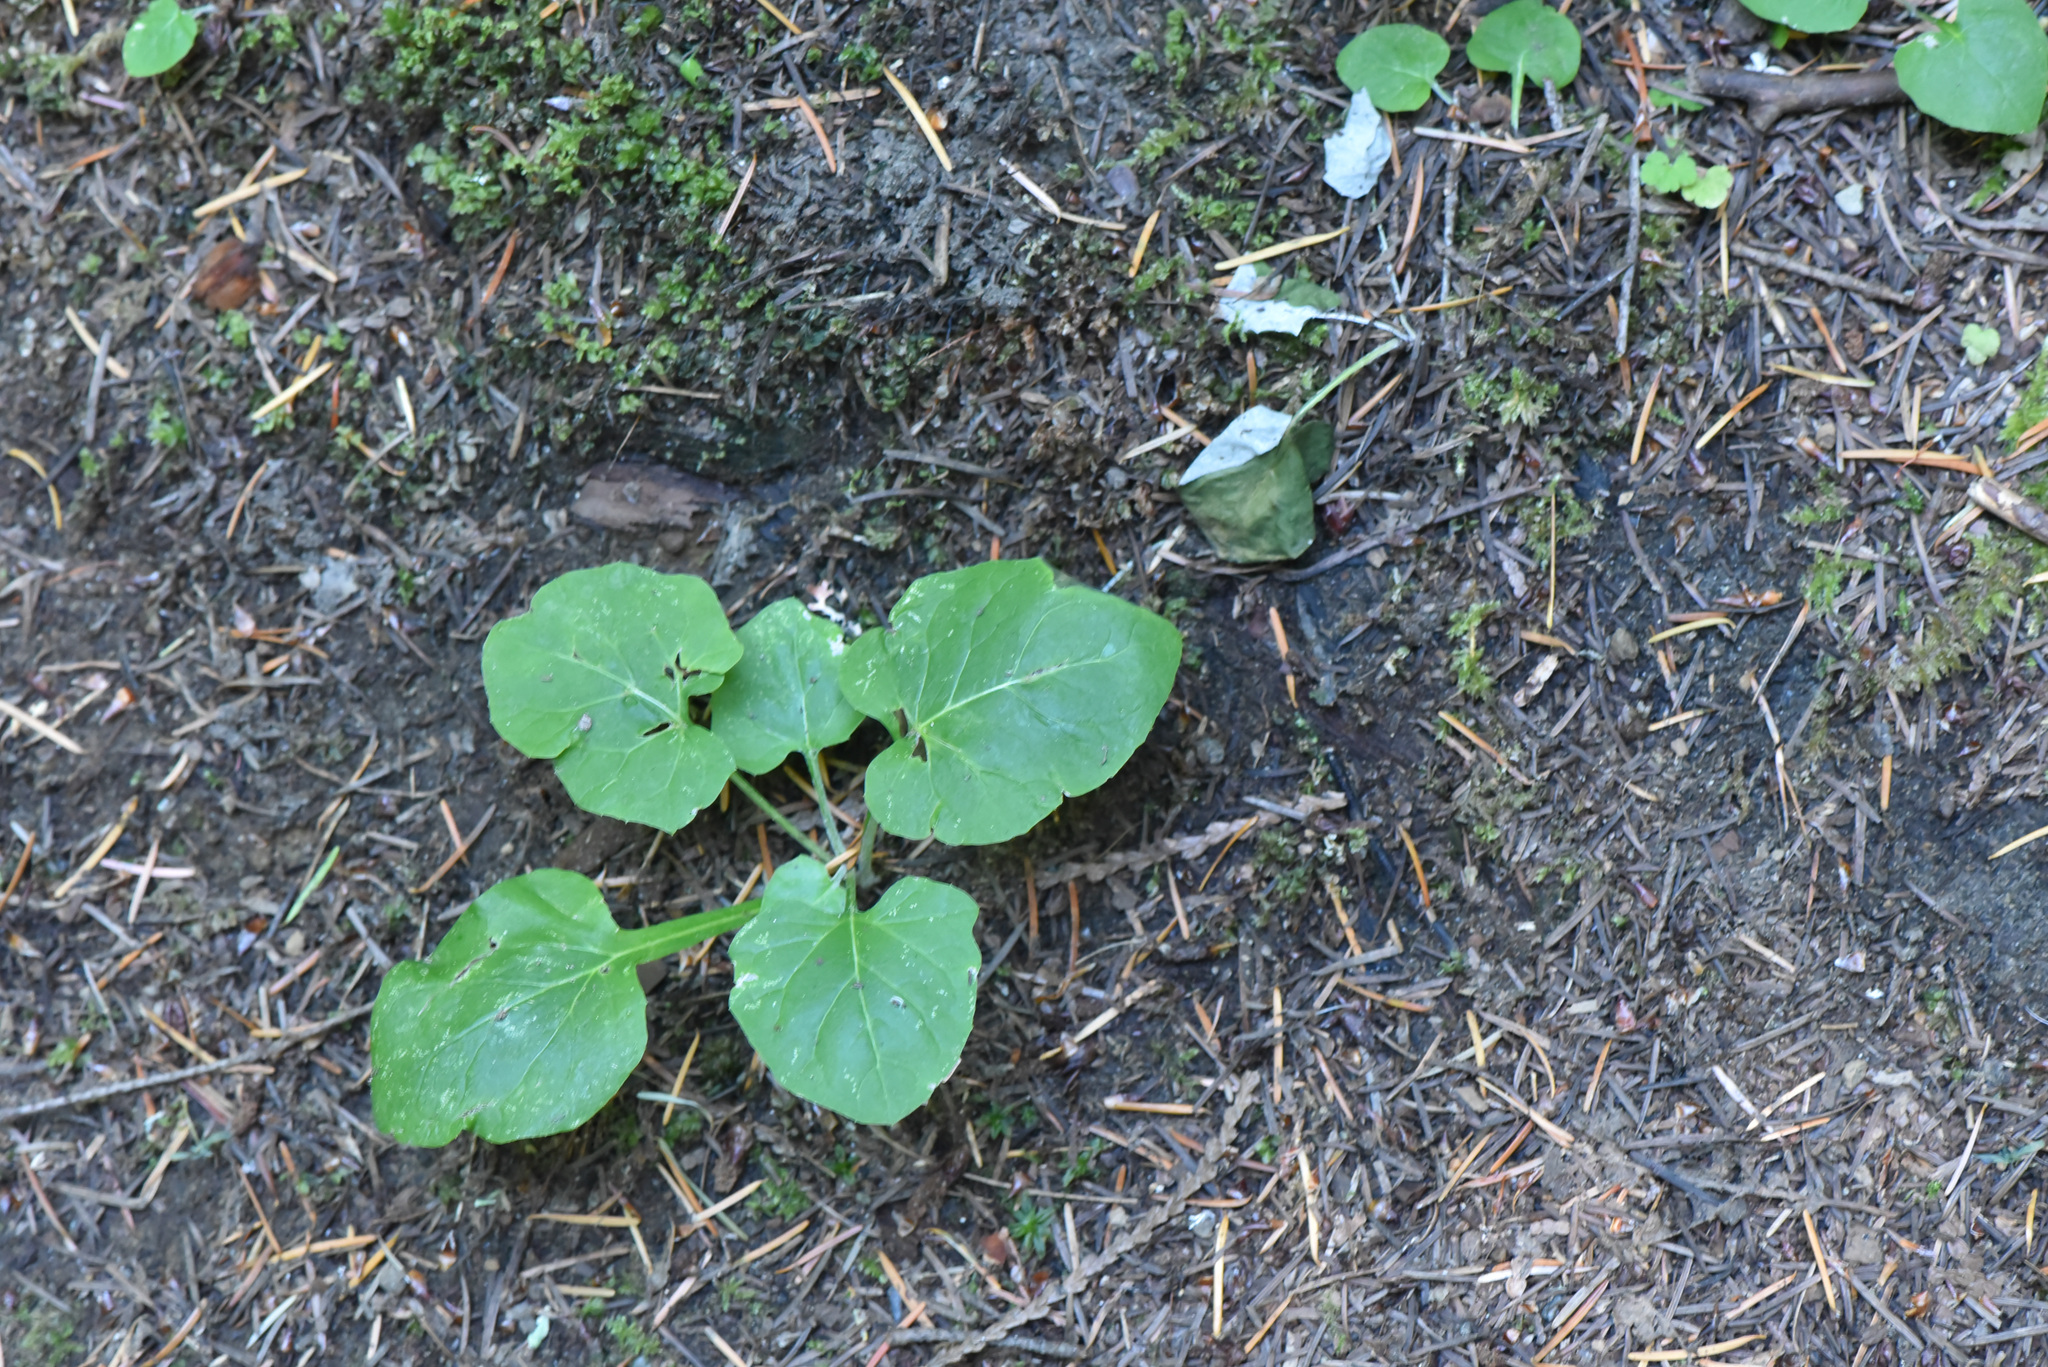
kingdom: Plantae
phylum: Tracheophyta
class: Magnoliopsida
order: Asterales
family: Asteraceae
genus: Adenocaulon
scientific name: Adenocaulon bicolor
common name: Trailplant
